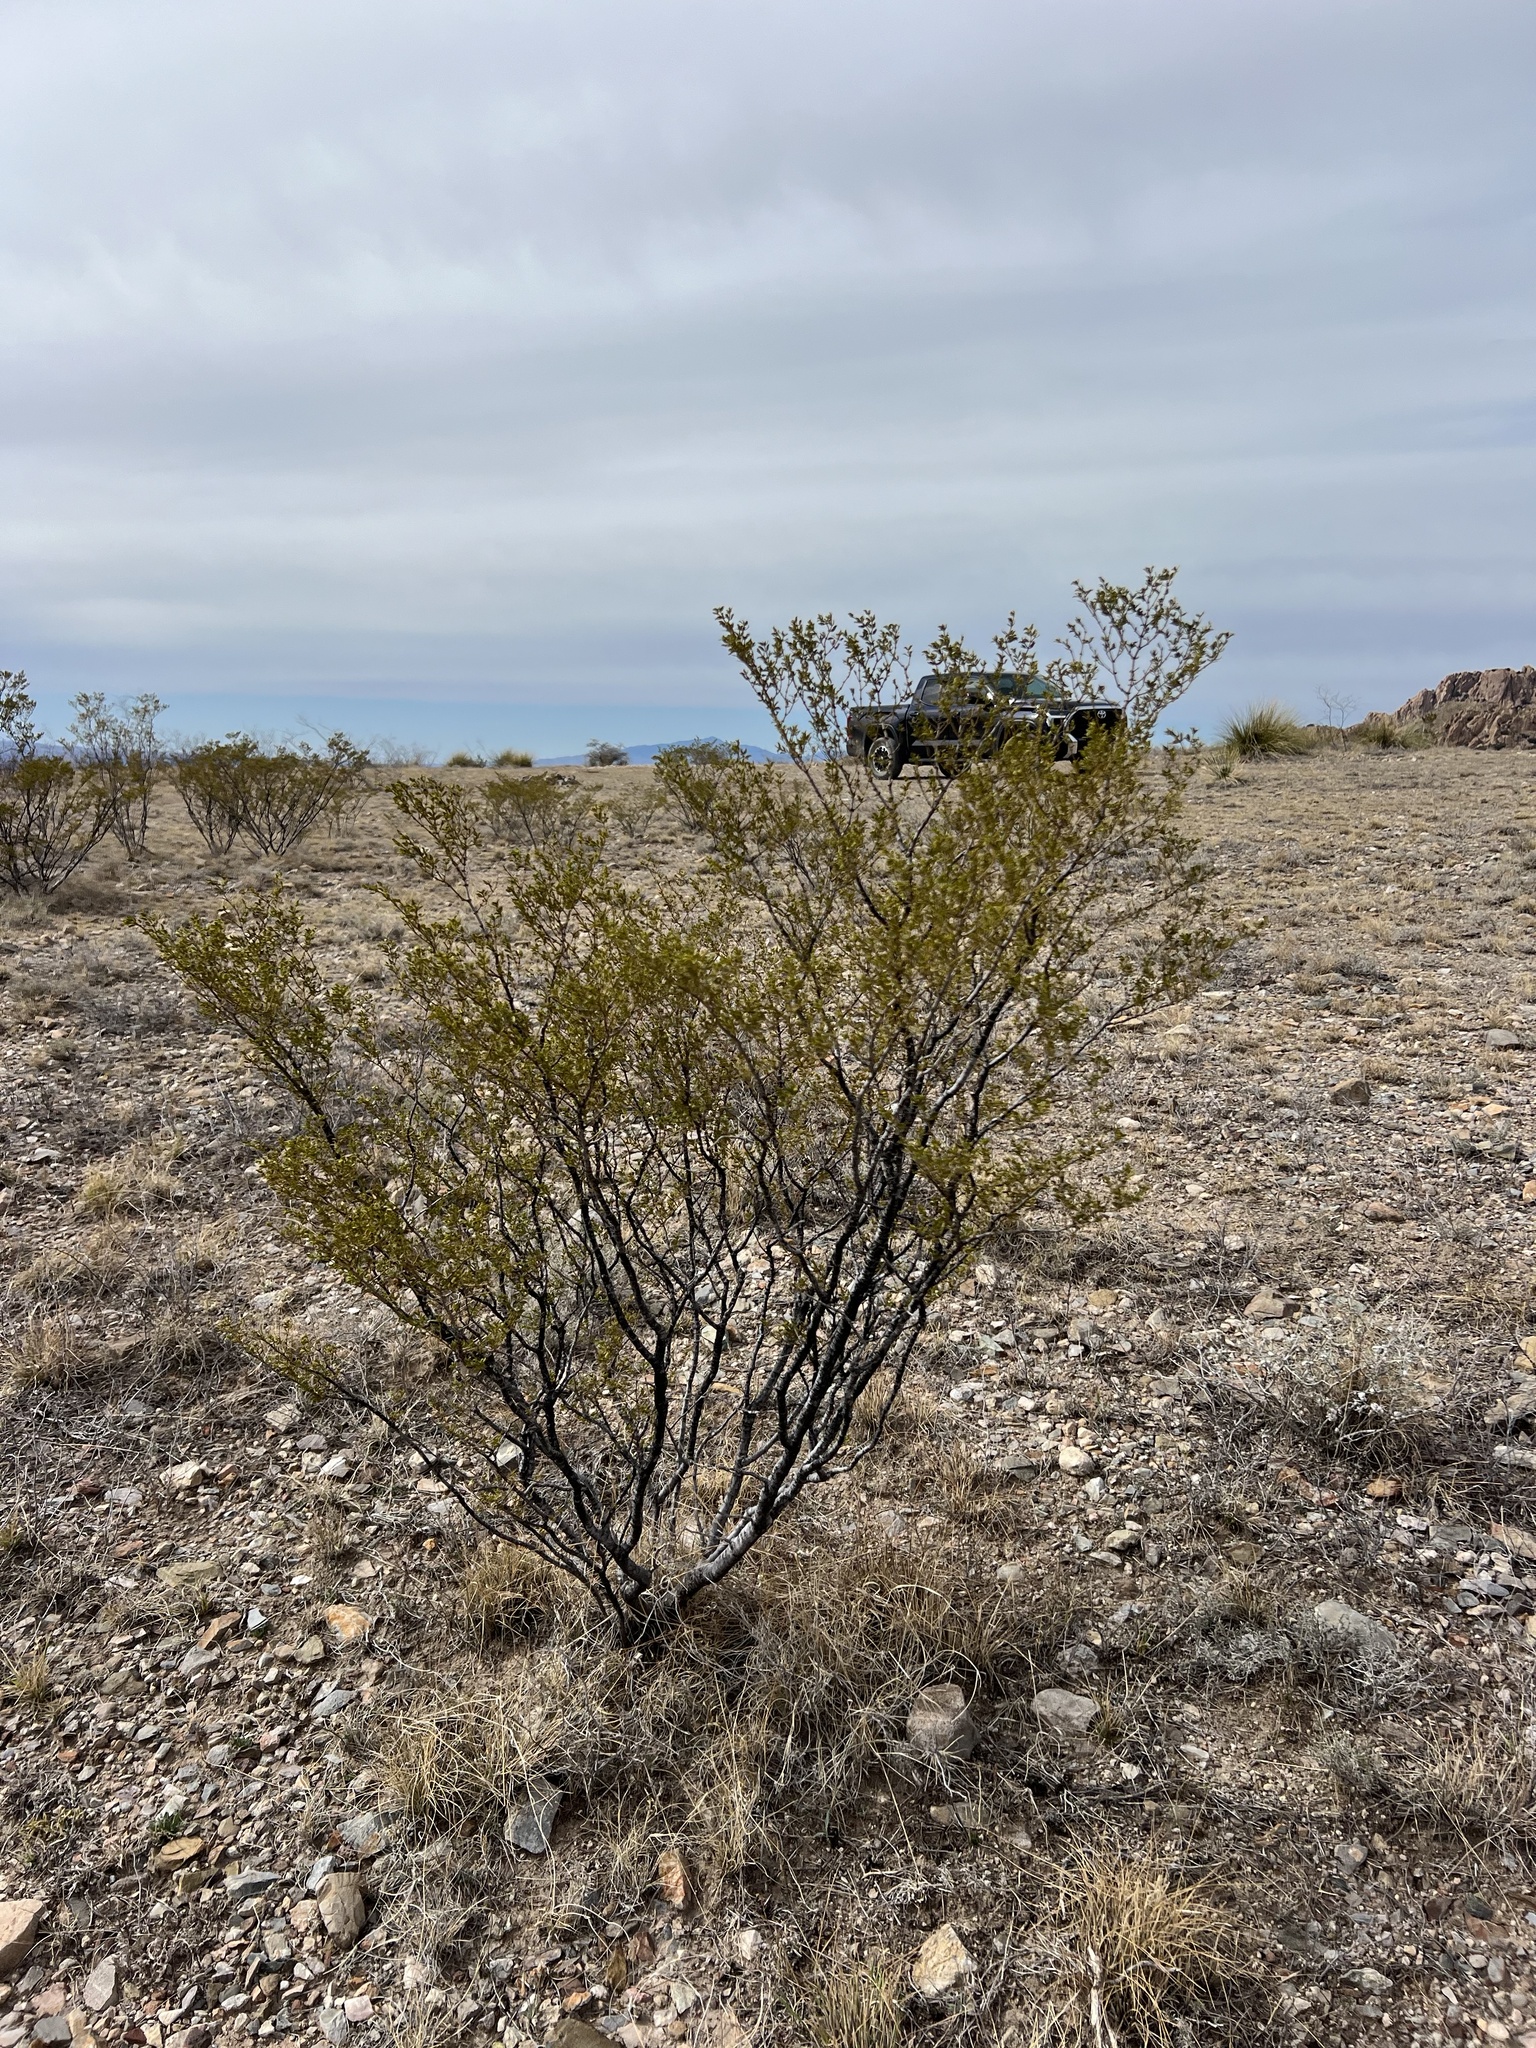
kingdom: Plantae
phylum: Tracheophyta
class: Magnoliopsida
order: Zygophyllales
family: Zygophyllaceae
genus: Larrea
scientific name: Larrea tridentata
